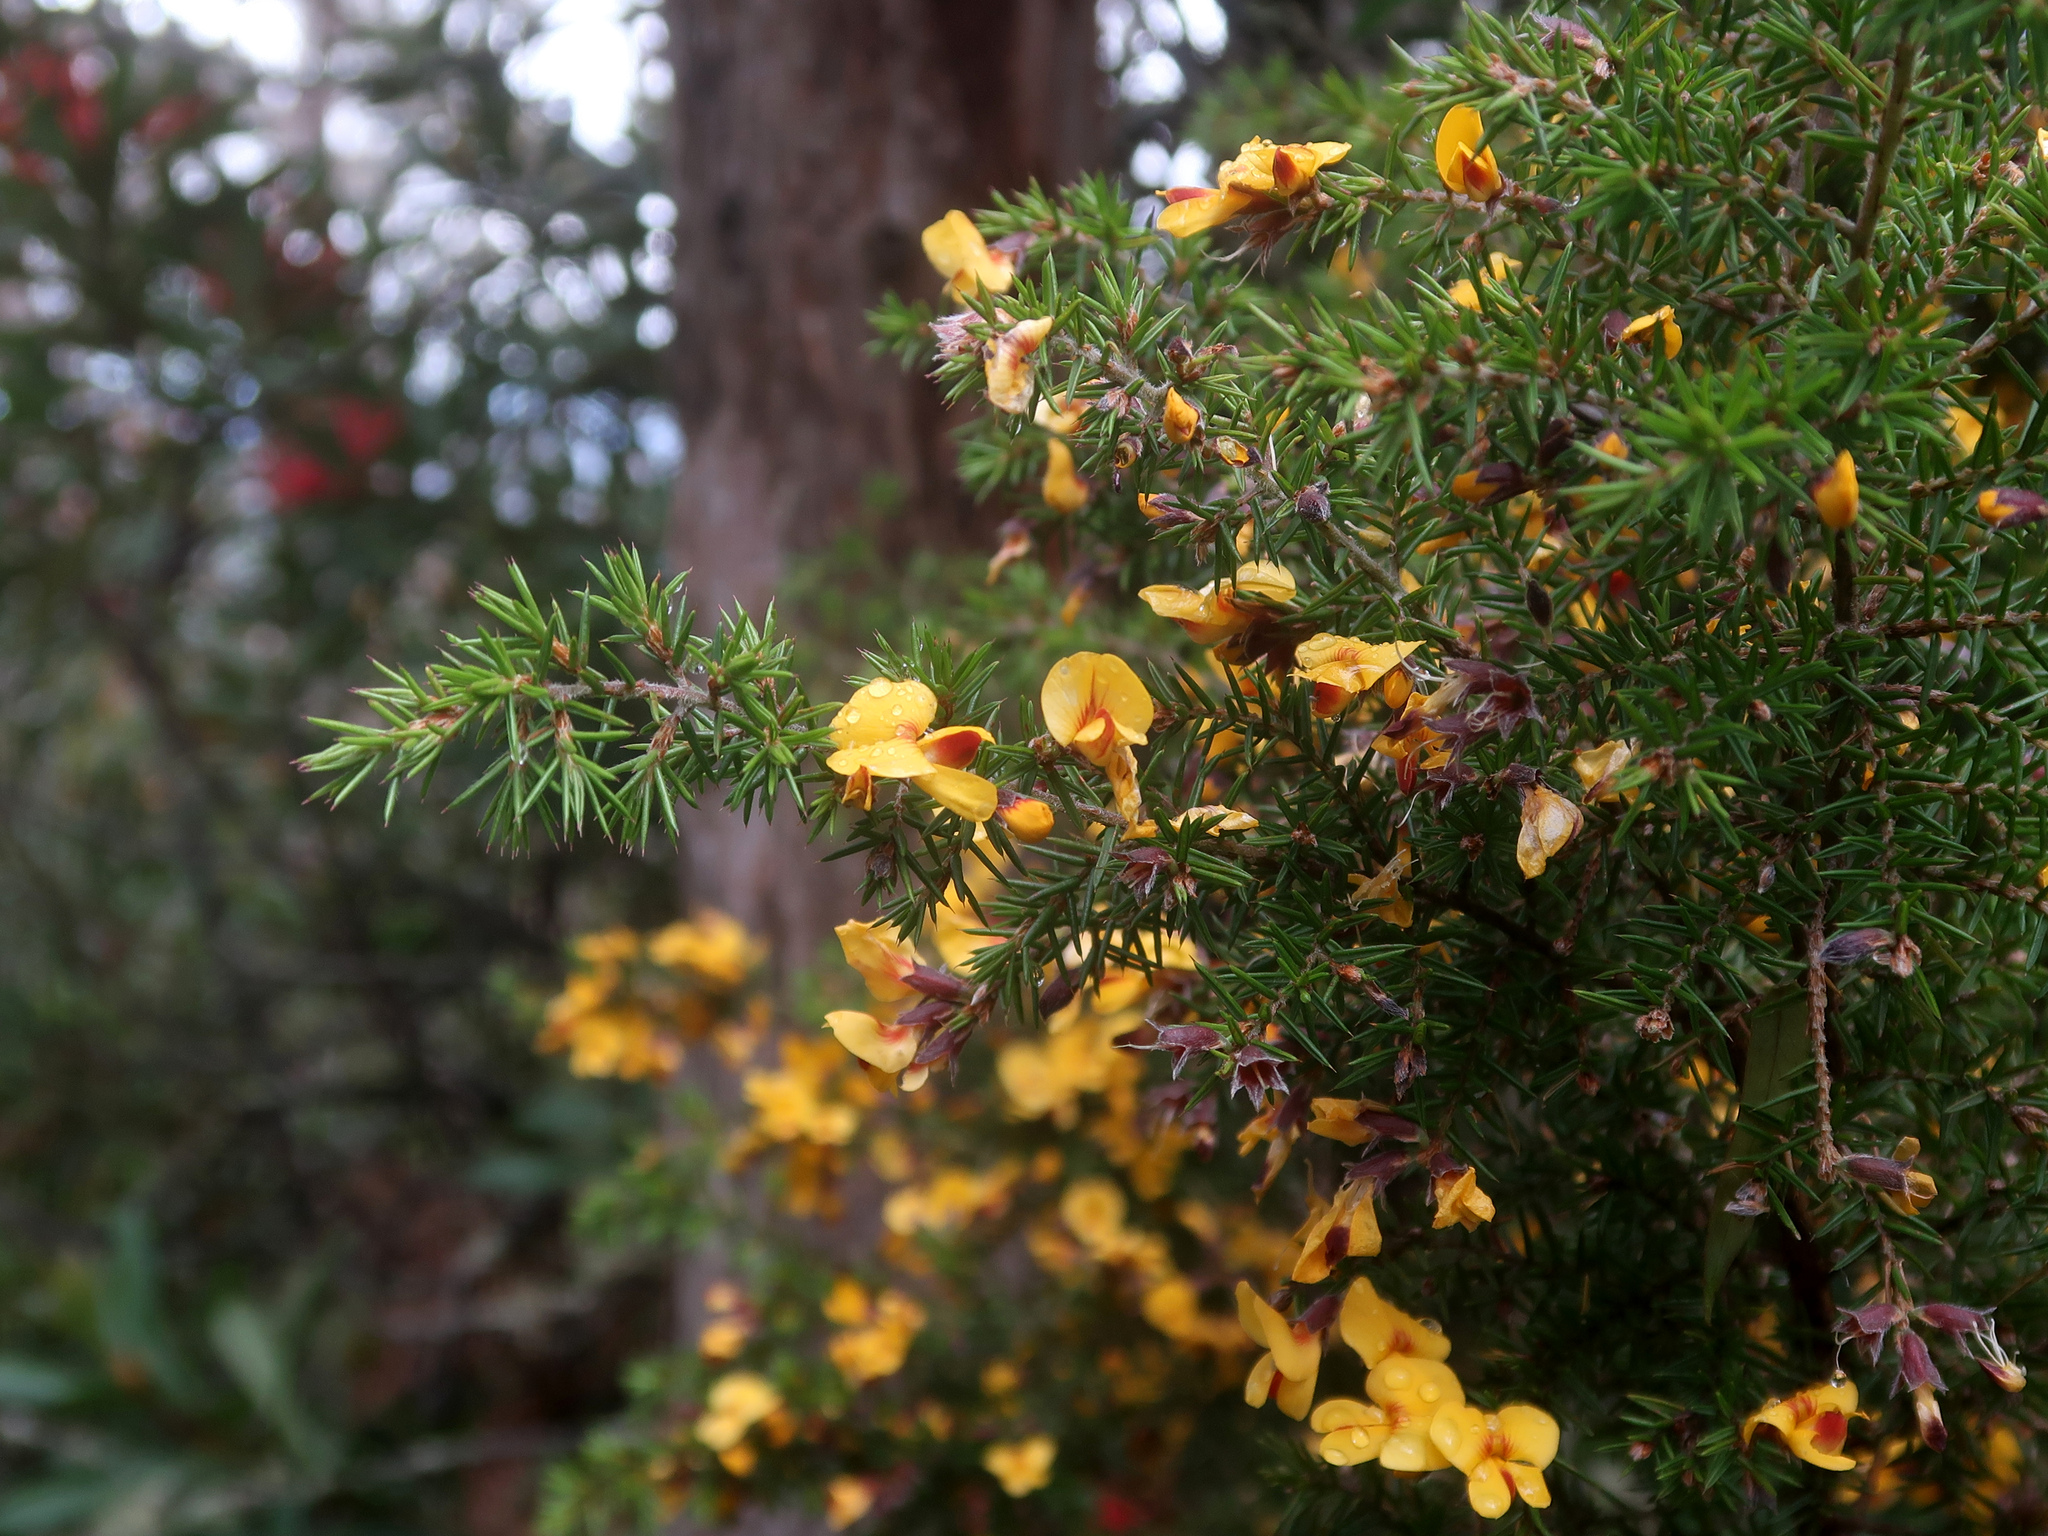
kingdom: Plantae
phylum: Tracheophyta
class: Magnoliopsida
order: Fabales
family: Fabaceae
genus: Pultenaea
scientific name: Pultenaea juniperina
